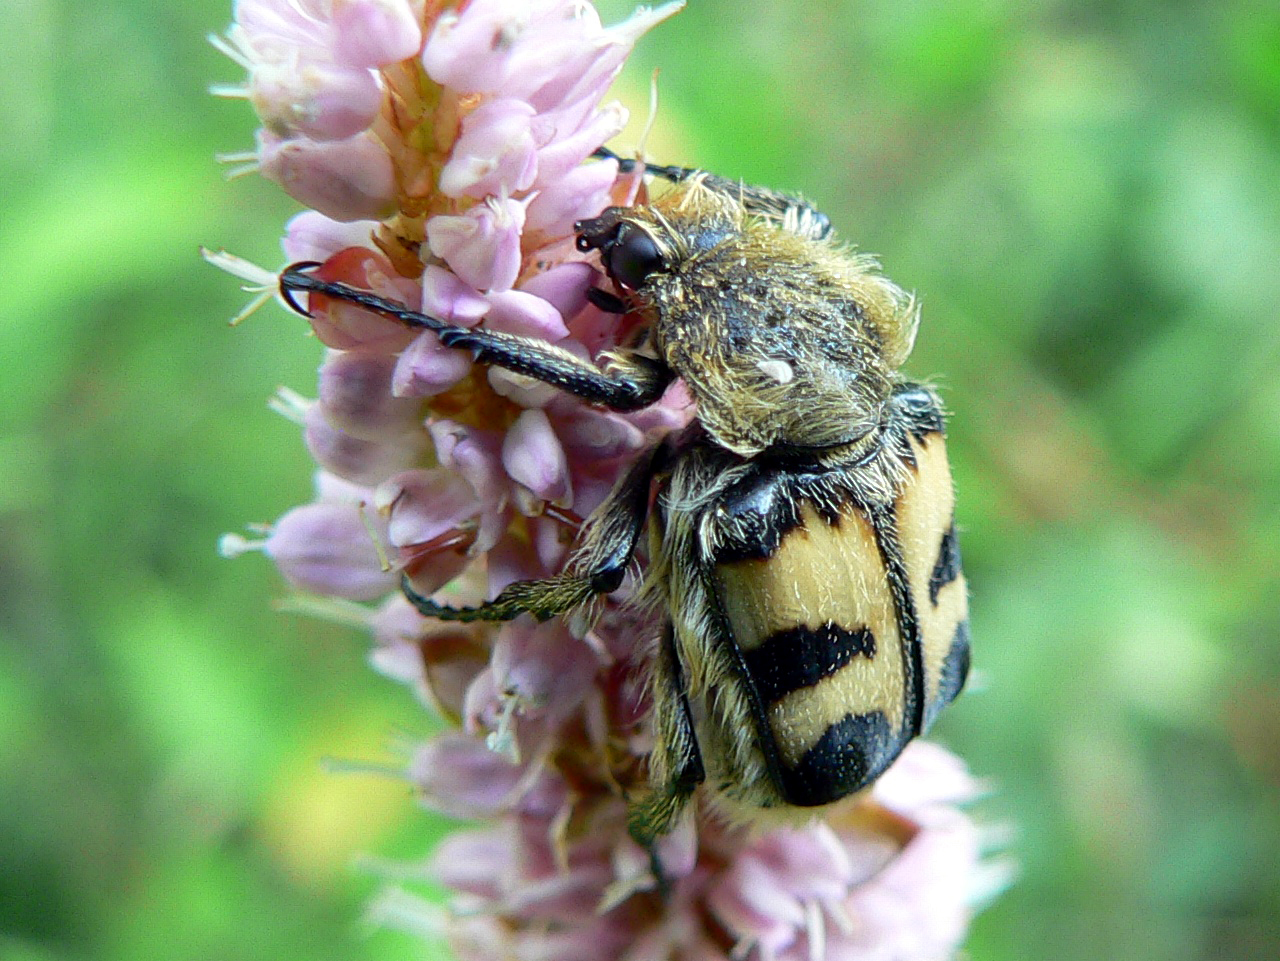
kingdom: Animalia
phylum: Arthropoda
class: Insecta
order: Coleoptera
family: Scarabaeidae
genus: Trichius
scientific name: Trichius fasciatus
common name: Bee beetle
